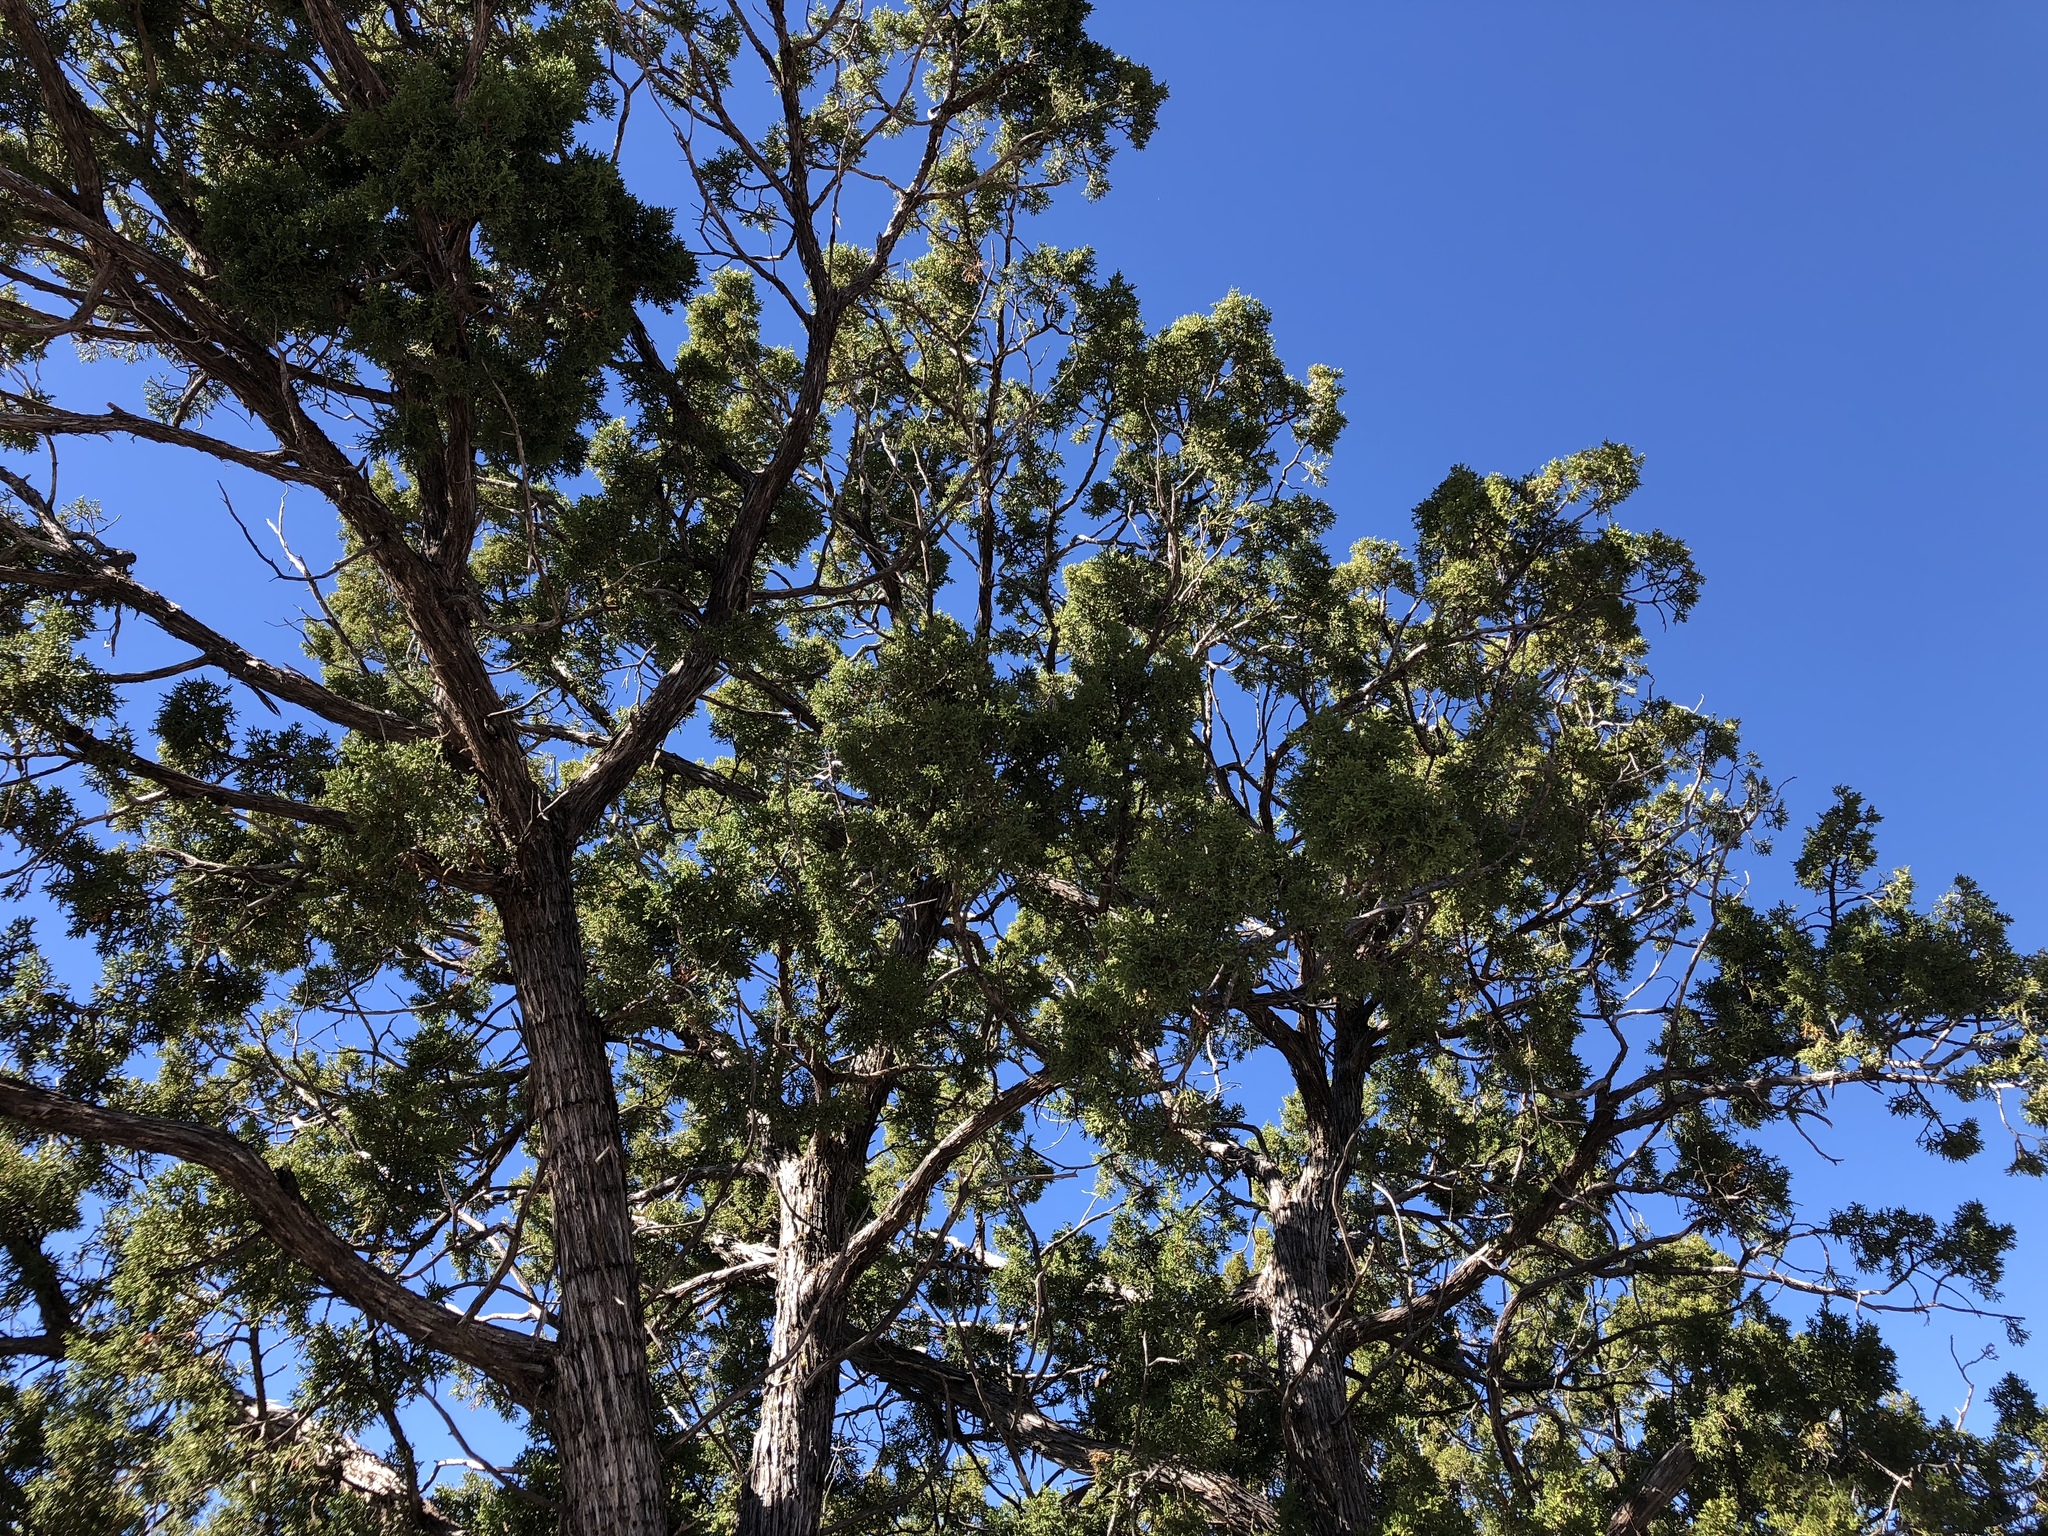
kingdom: Plantae
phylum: Tracheophyta
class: Pinopsida
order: Pinales
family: Cupressaceae
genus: Juniperus
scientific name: Juniperus monosperma
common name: One-seed juniper
